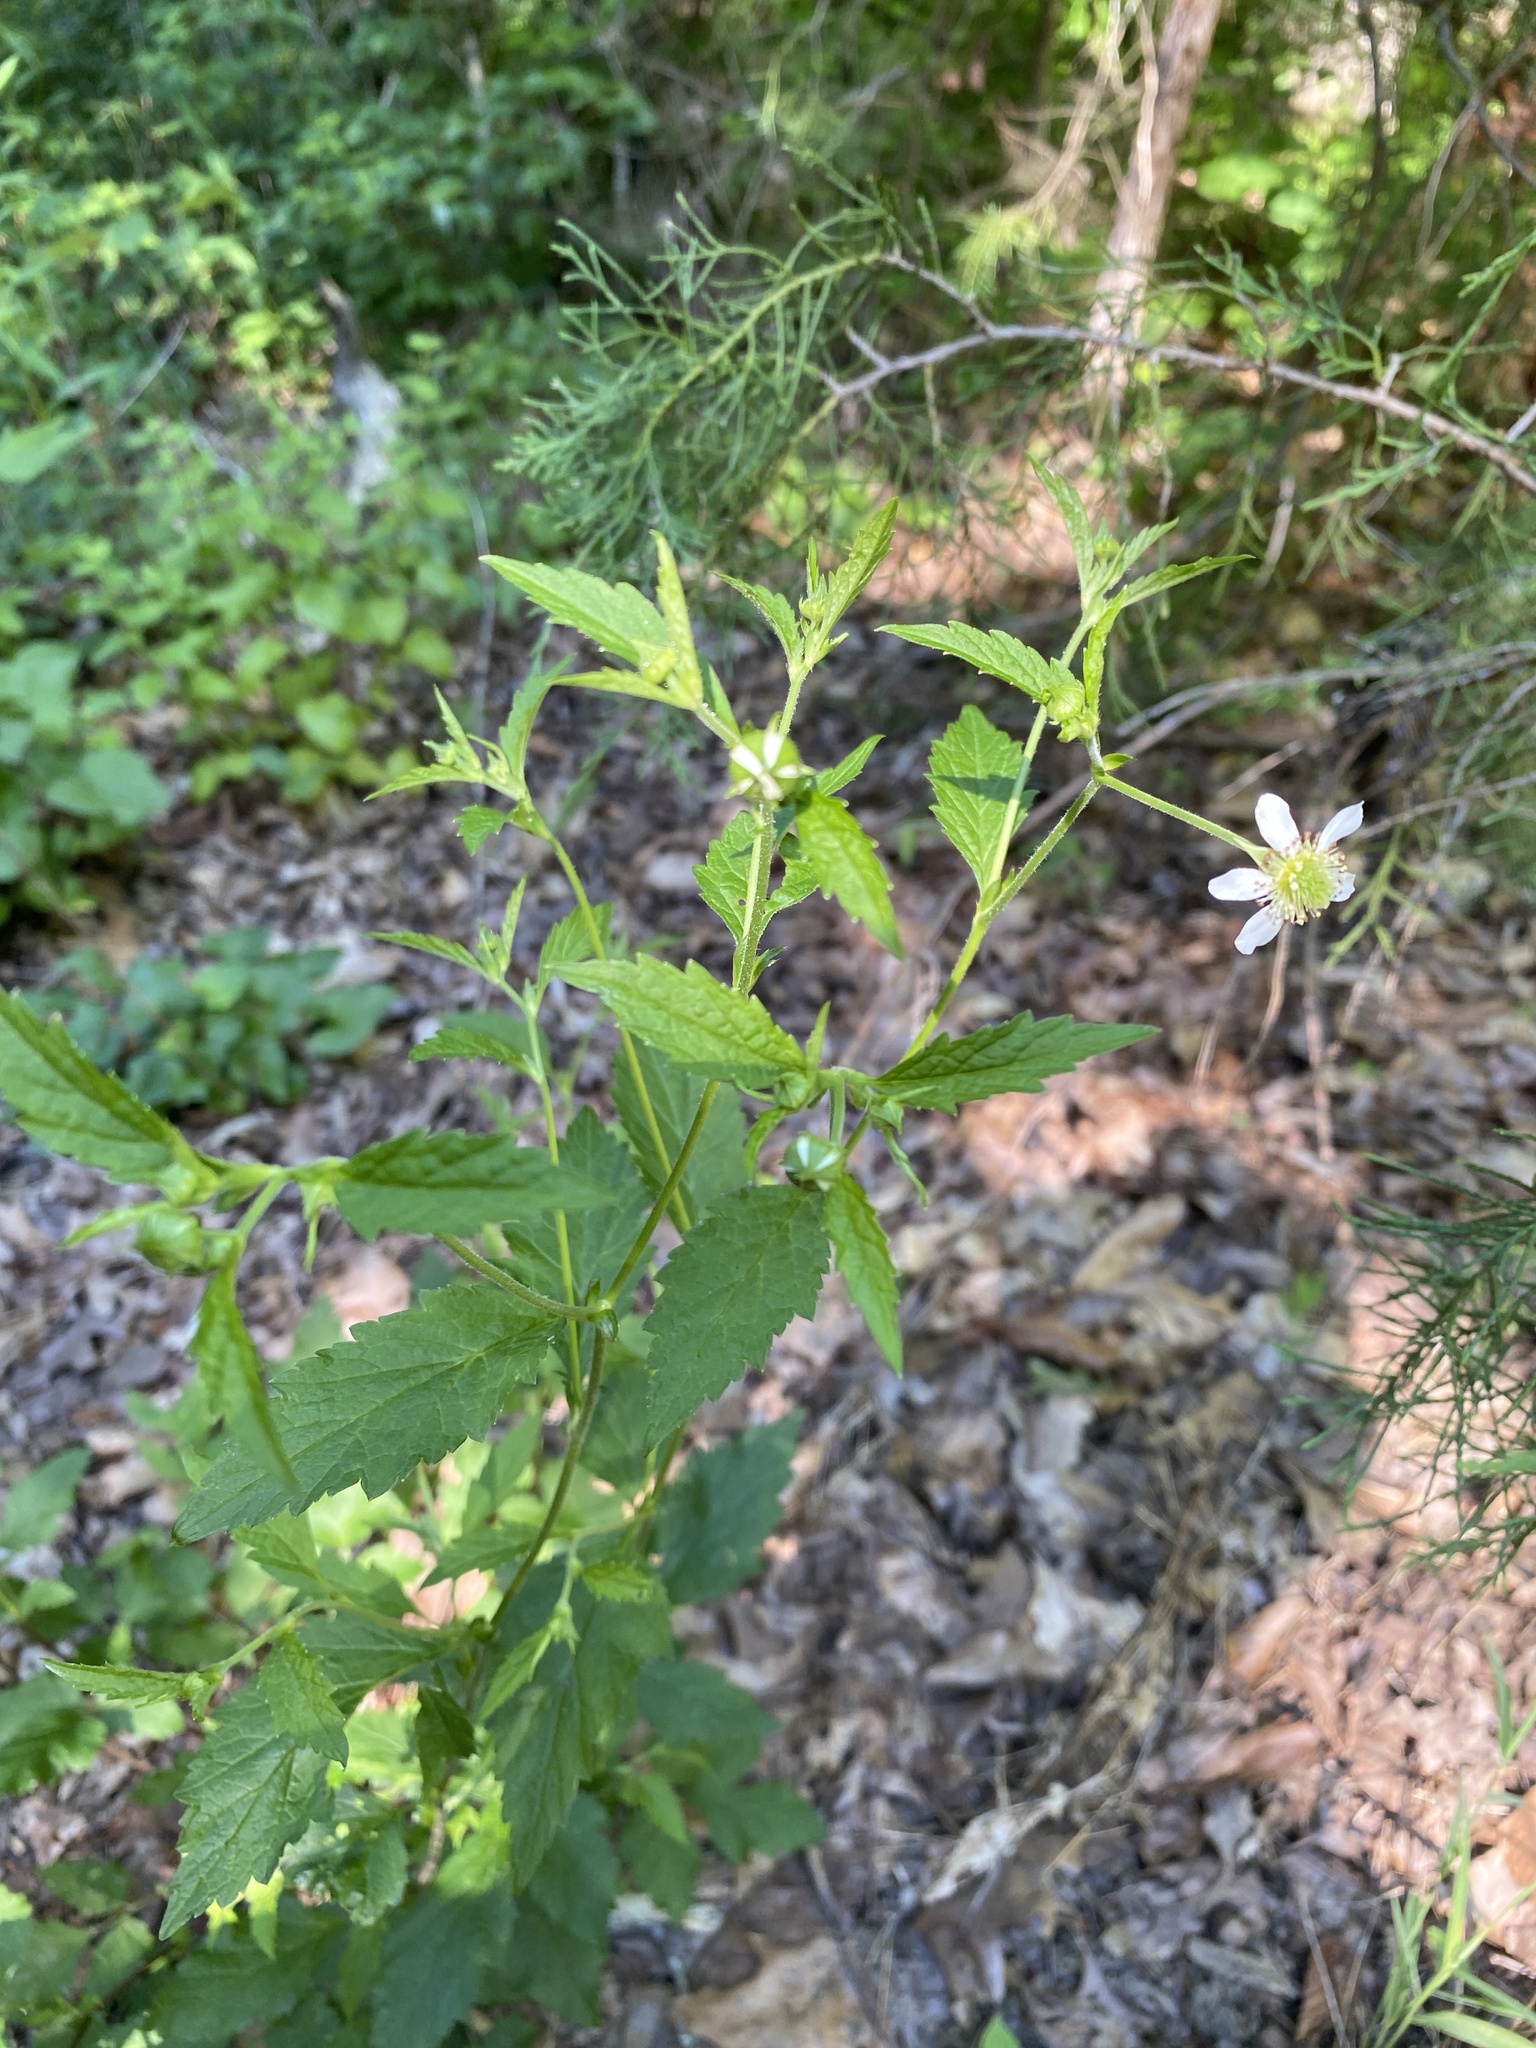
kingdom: Plantae
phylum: Tracheophyta
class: Magnoliopsida
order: Rosales
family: Rosaceae
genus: Geum
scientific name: Geum canadense
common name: White avens
